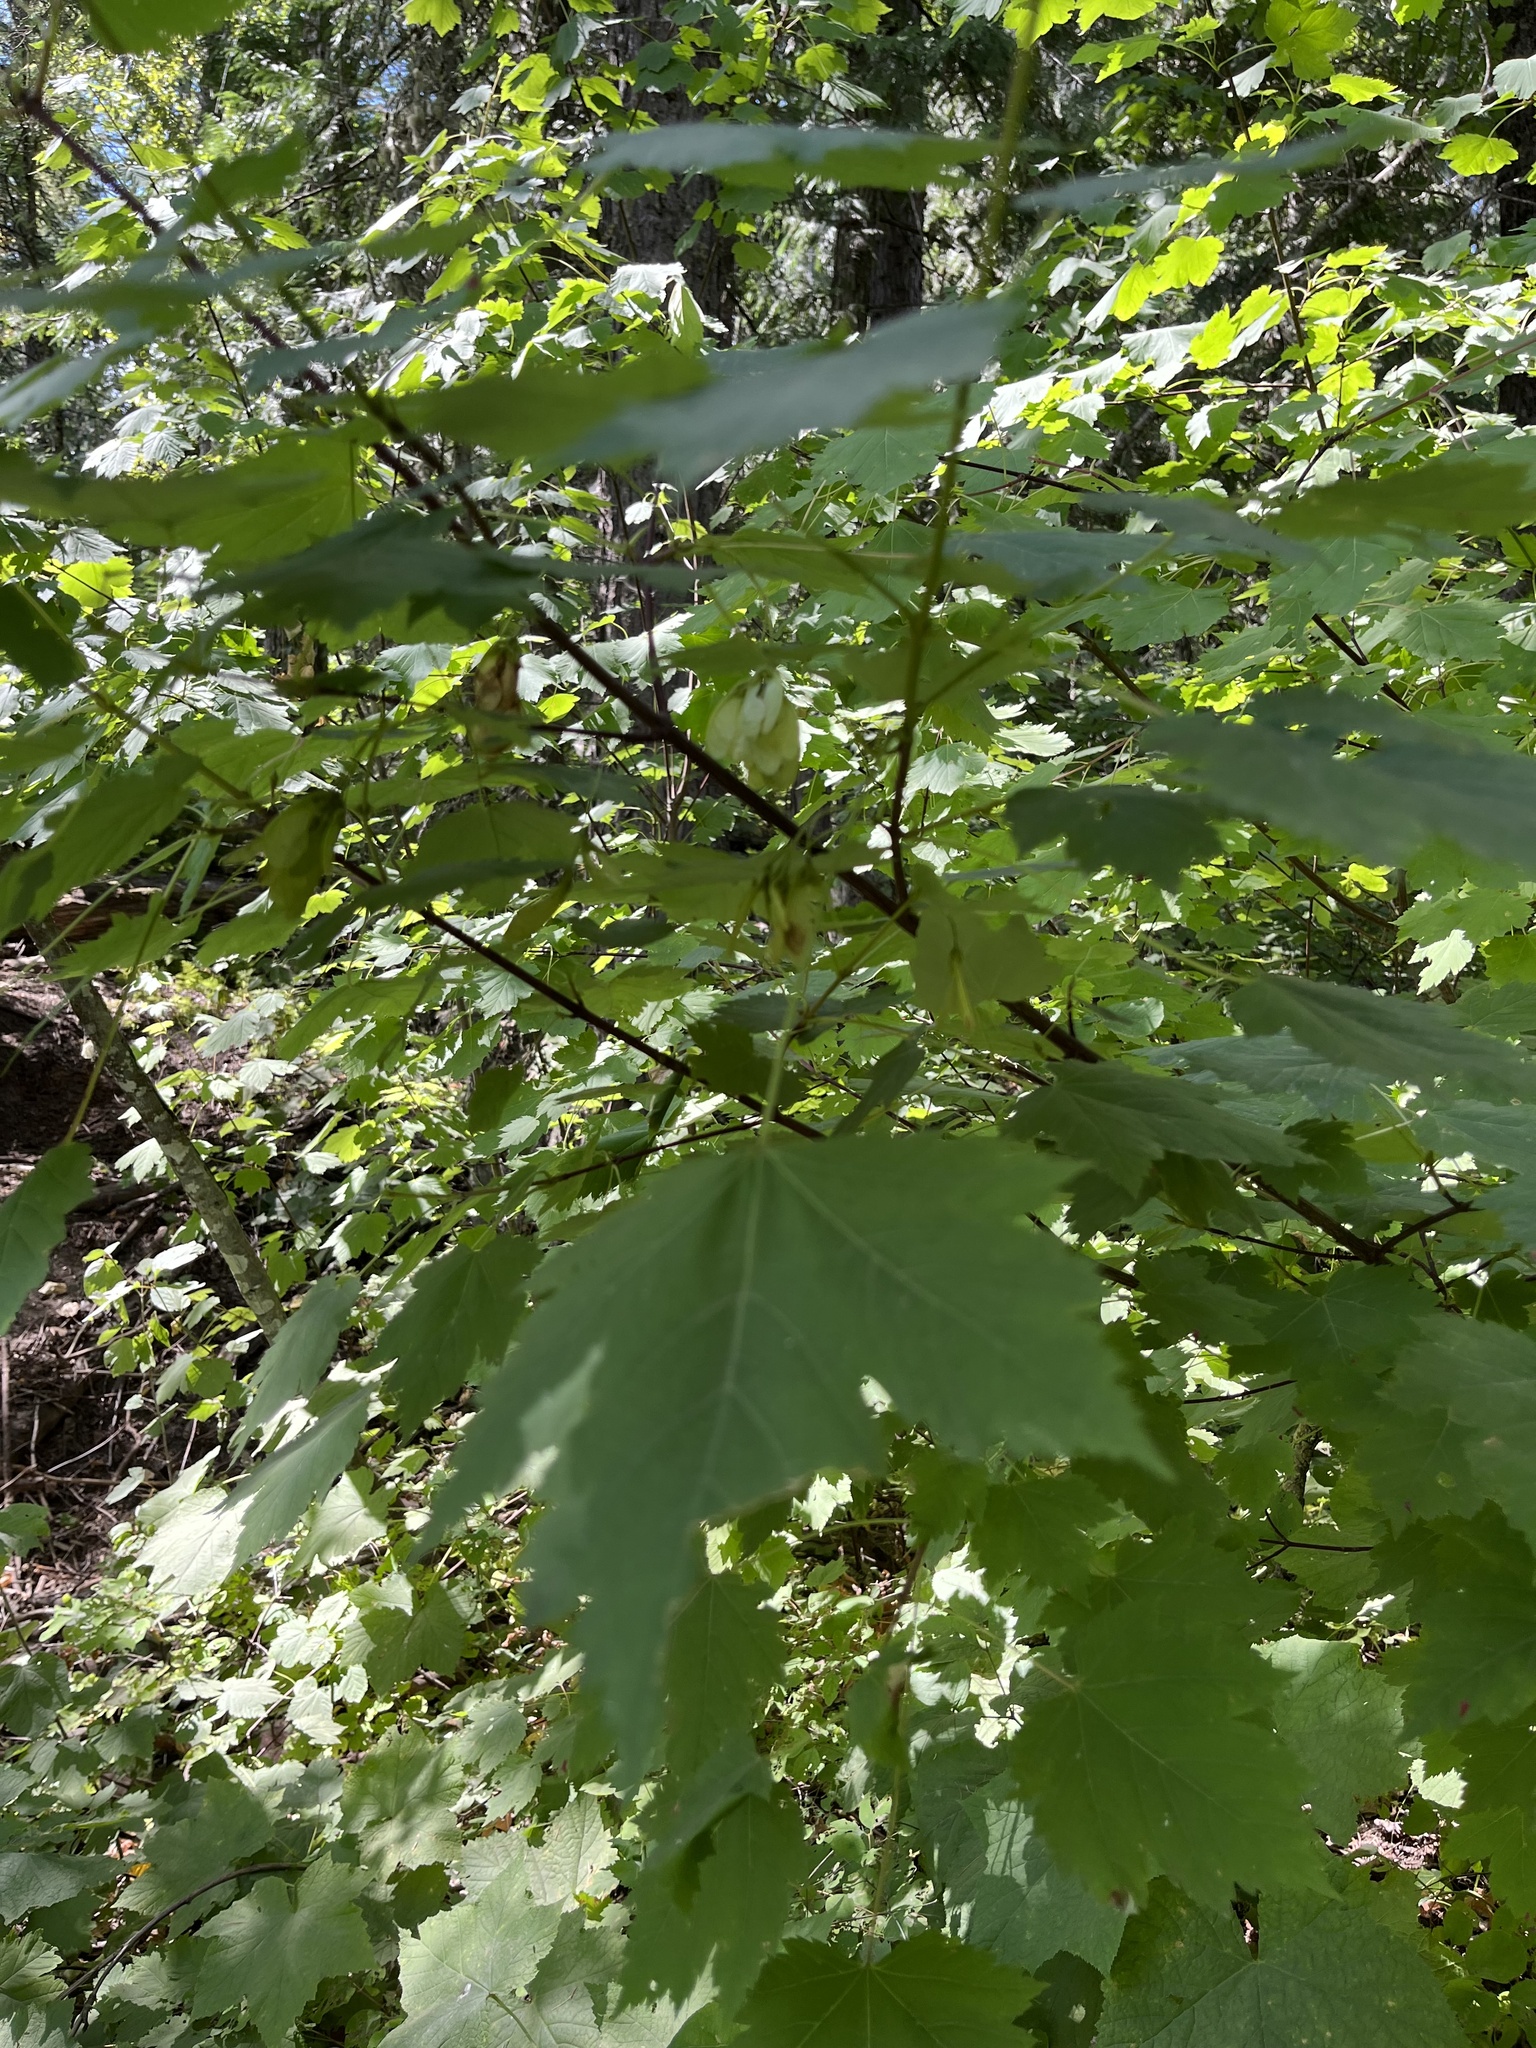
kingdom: Plantae
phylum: Tracheophyta
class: Magnoliopsida
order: Sapindales
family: Sapindaceae
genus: Acer
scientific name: Acer glabrum
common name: Rocky mountain maple
